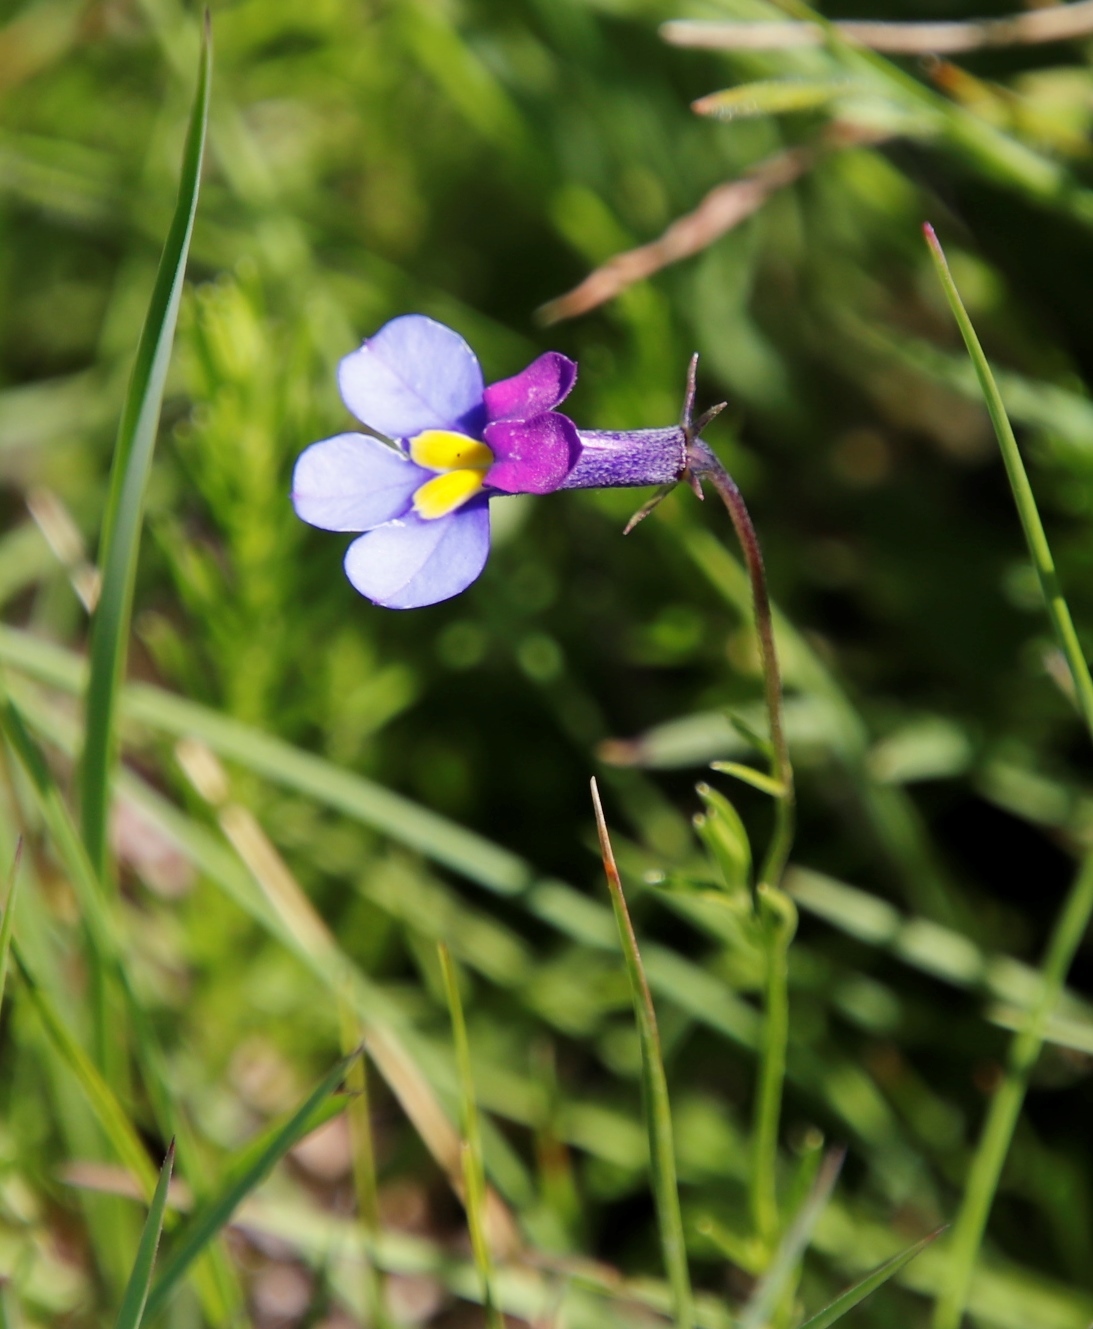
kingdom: Plantae
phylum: Tracheophyta
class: Magnoliopsida
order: Asterales
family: Campanulaceae
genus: Monopsis
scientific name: Monopsis decipiens
